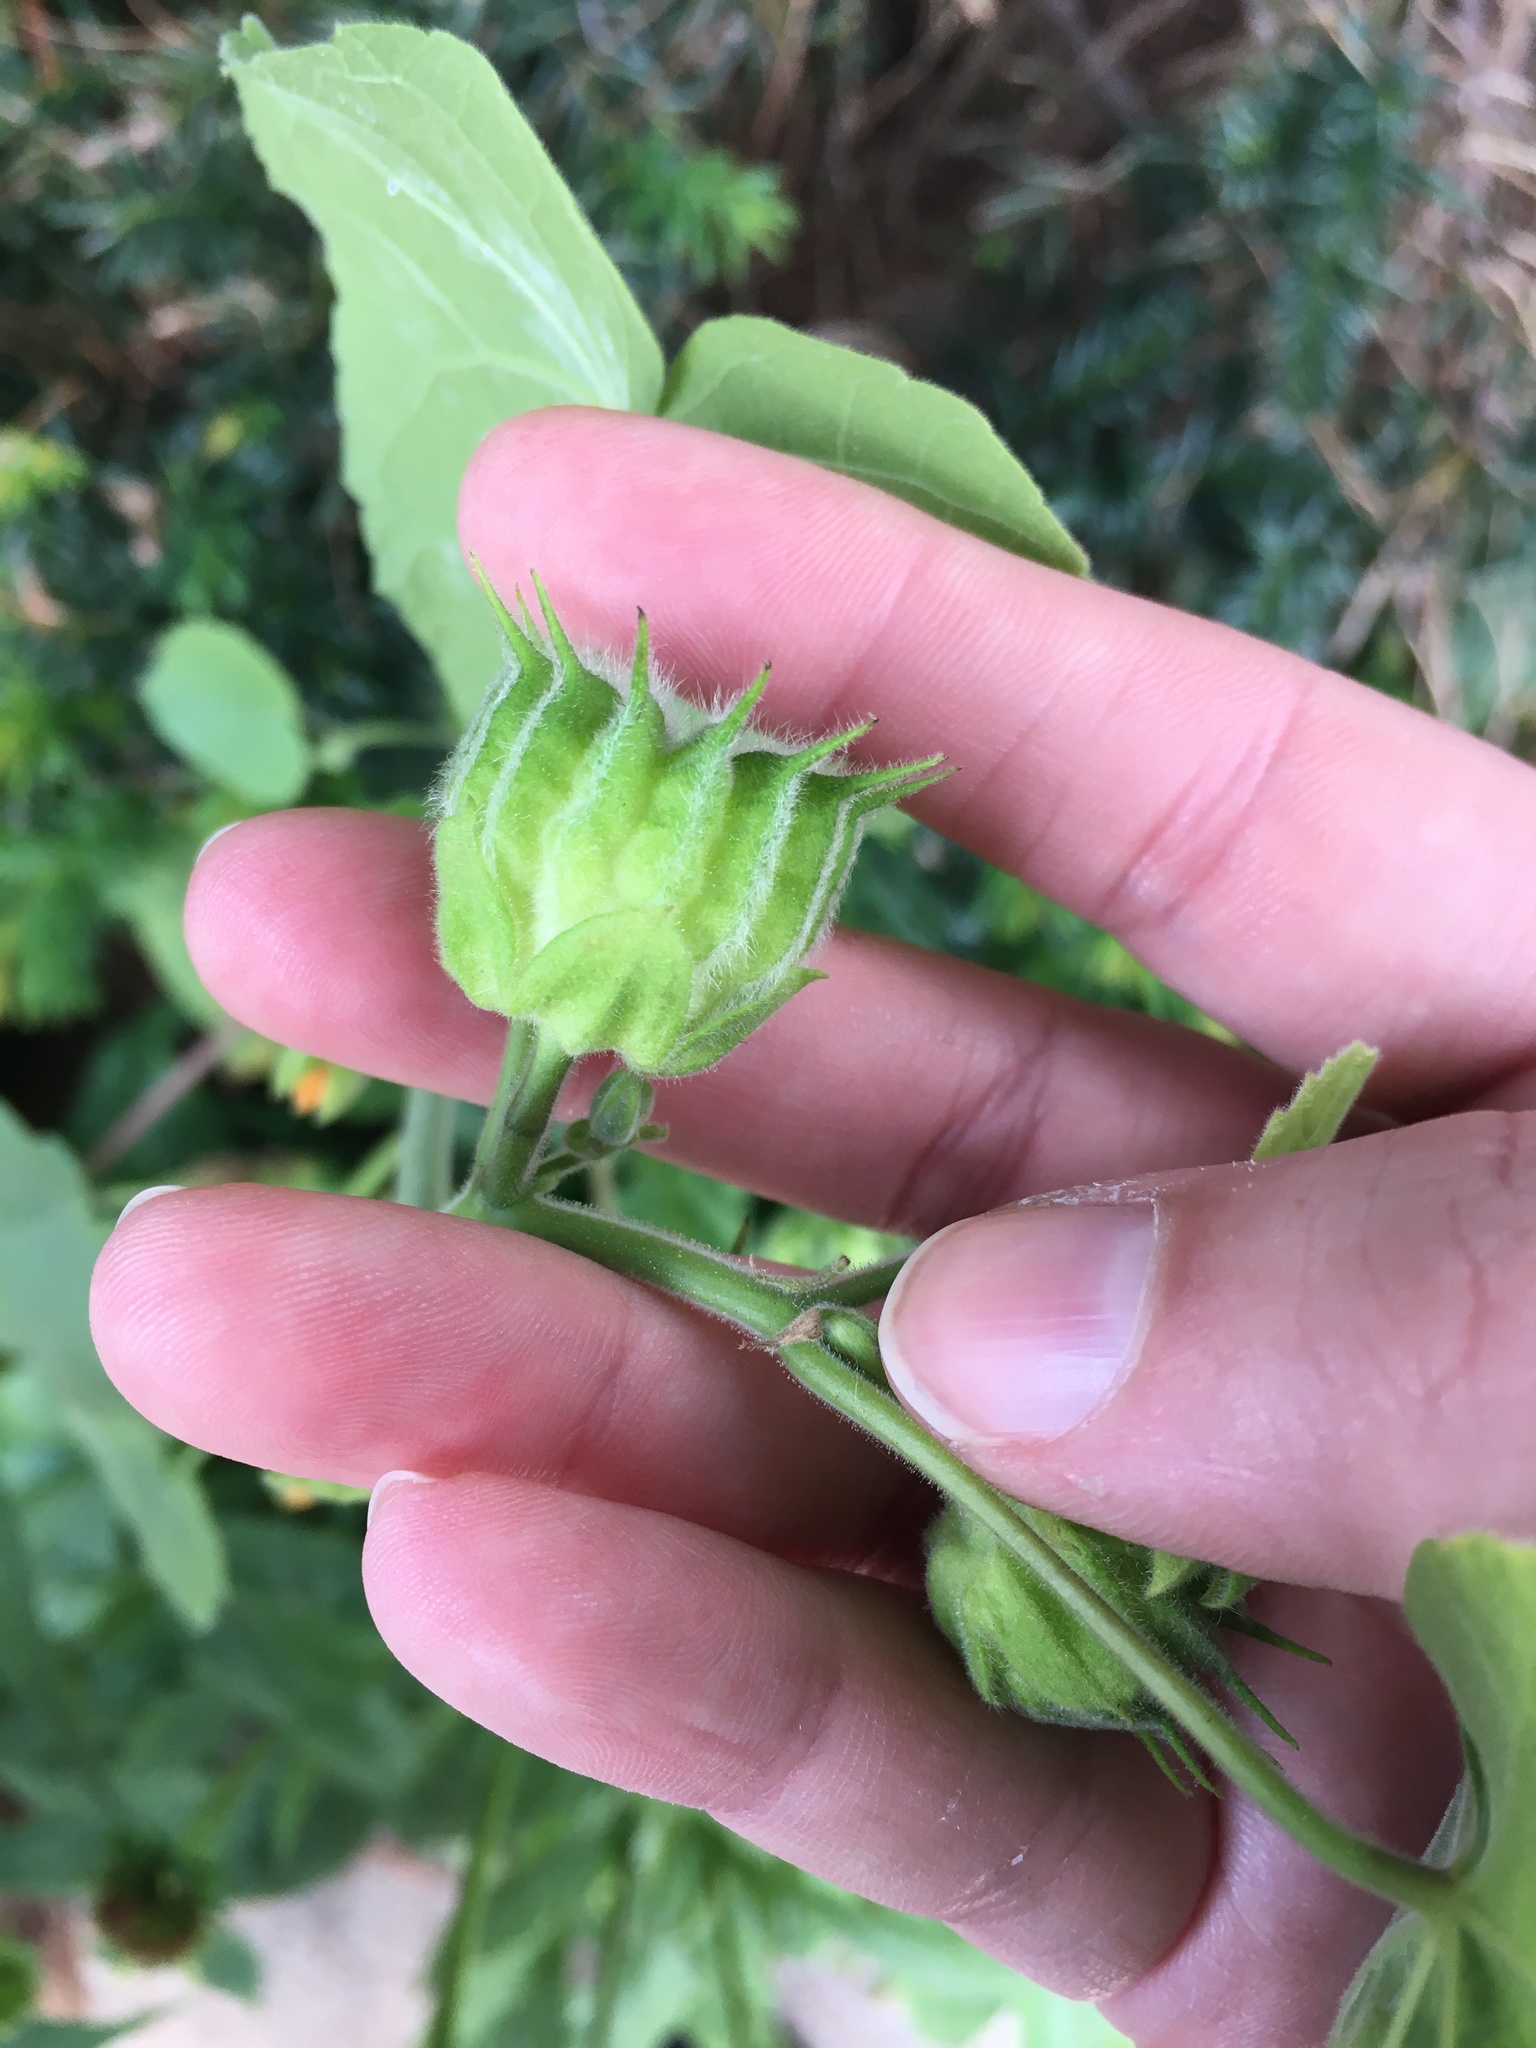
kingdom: Plantae
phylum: Tracheophyta
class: Magnoliopsida
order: Malvales
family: Malvaceae
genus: Abutilon
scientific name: Abutilon theophrasti
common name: Velvetleaf
